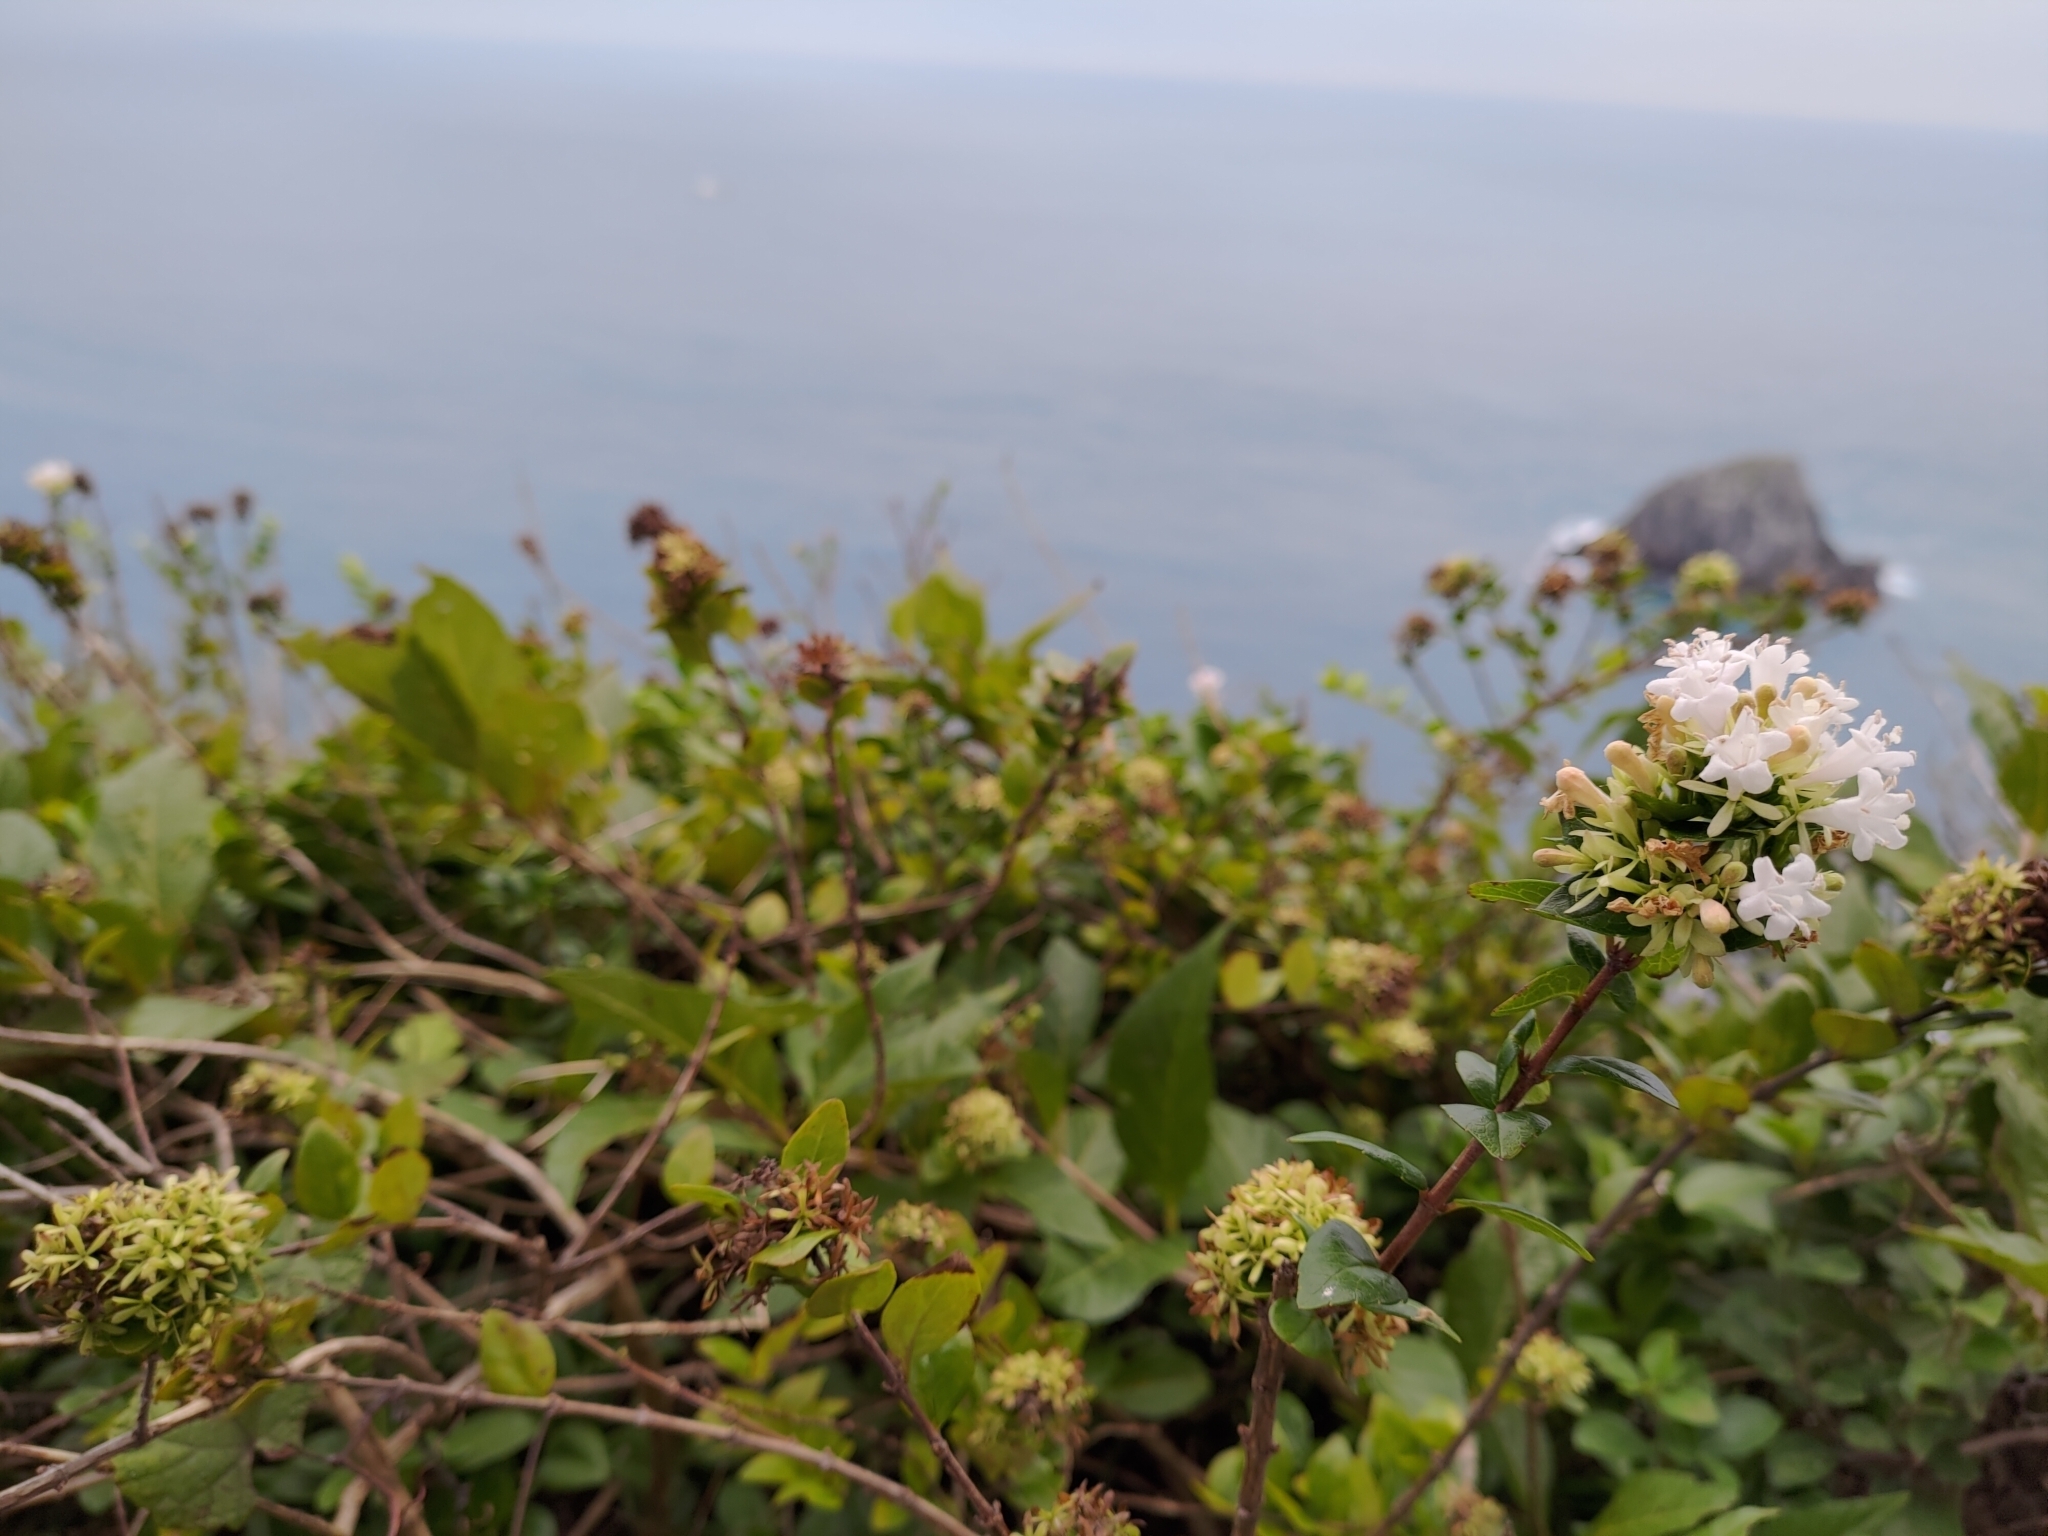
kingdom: Plantae
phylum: Tracheophyta
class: Magnoliopsida
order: Dipsacales
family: Caprifoliaceae
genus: Abelia
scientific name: Abelia chinensis
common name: Chinese abelia
